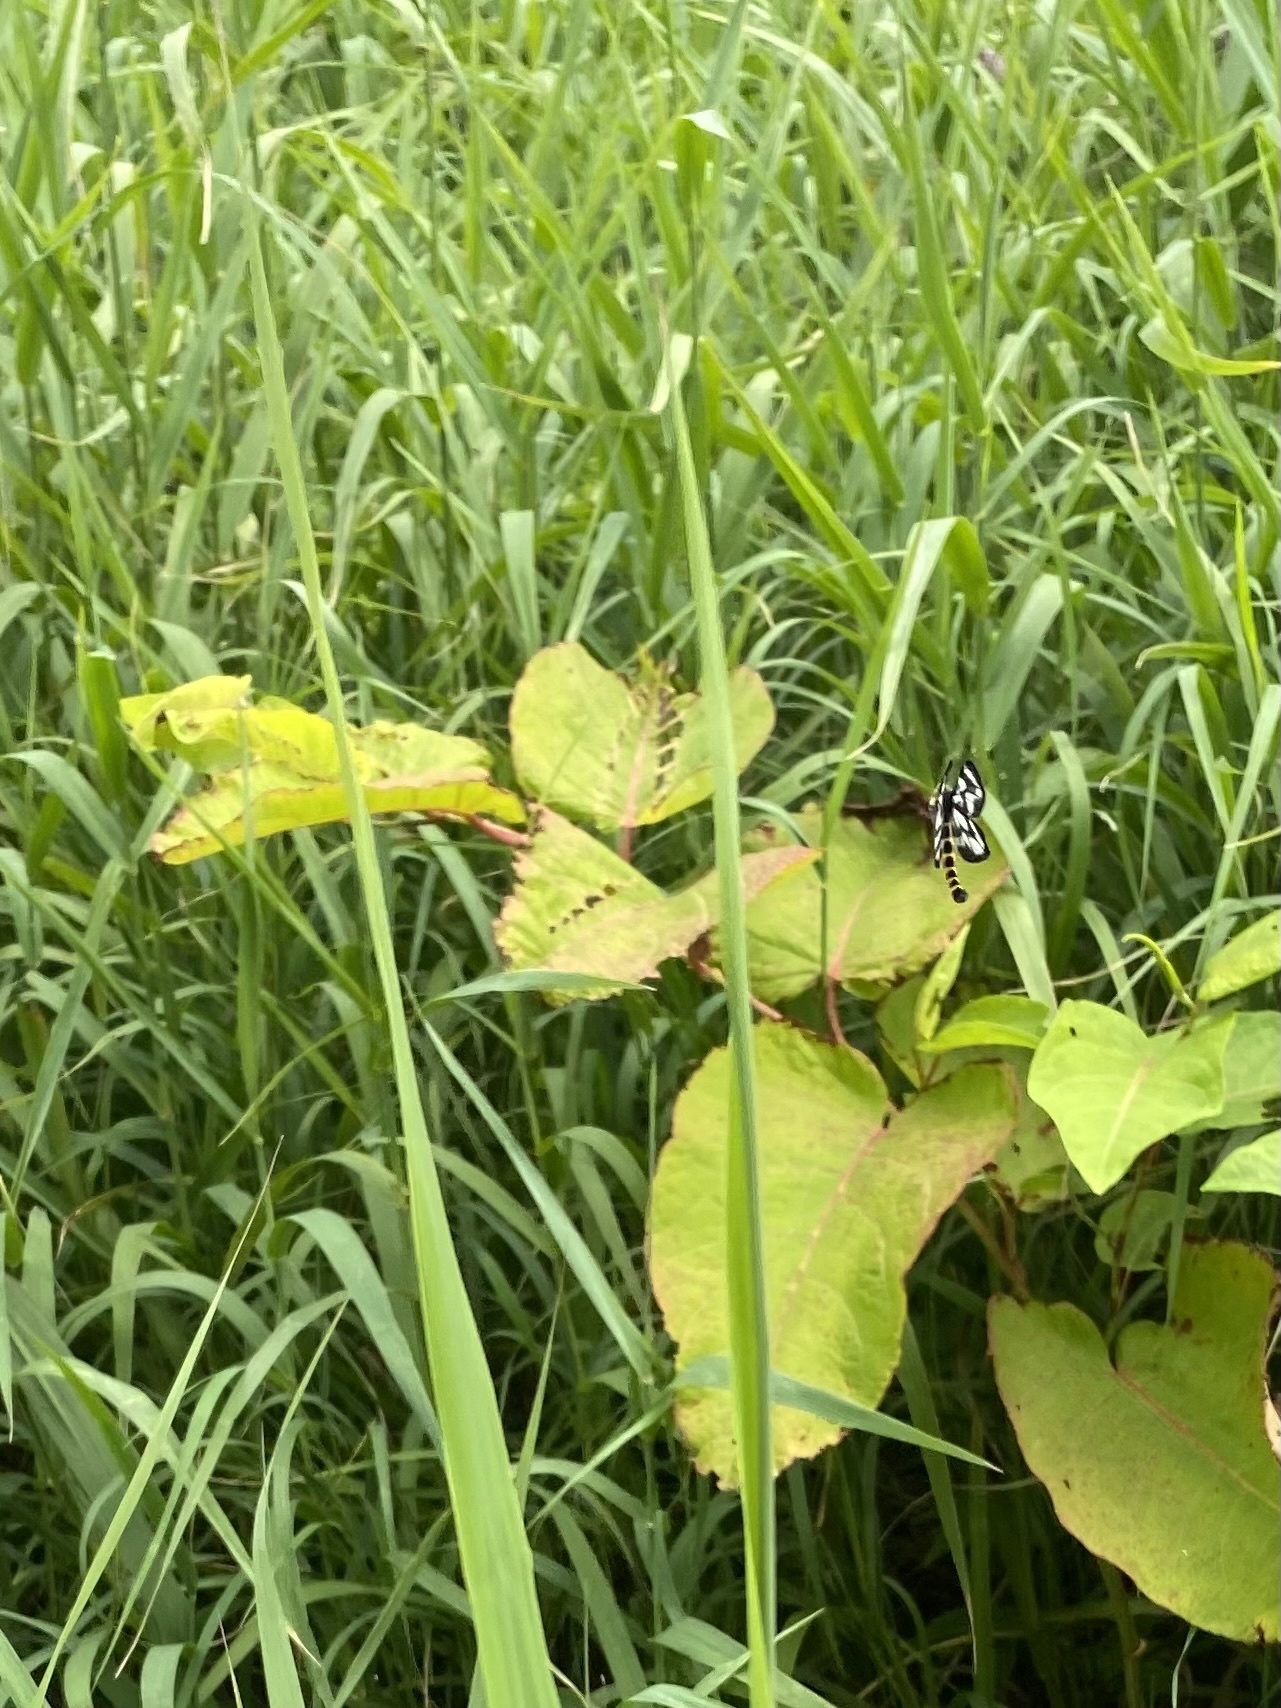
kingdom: Animalia
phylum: Arthropoda
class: Insecta
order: Lepidoptera
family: Geometridae
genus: Cystidia
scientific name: Cystidia stratonice
